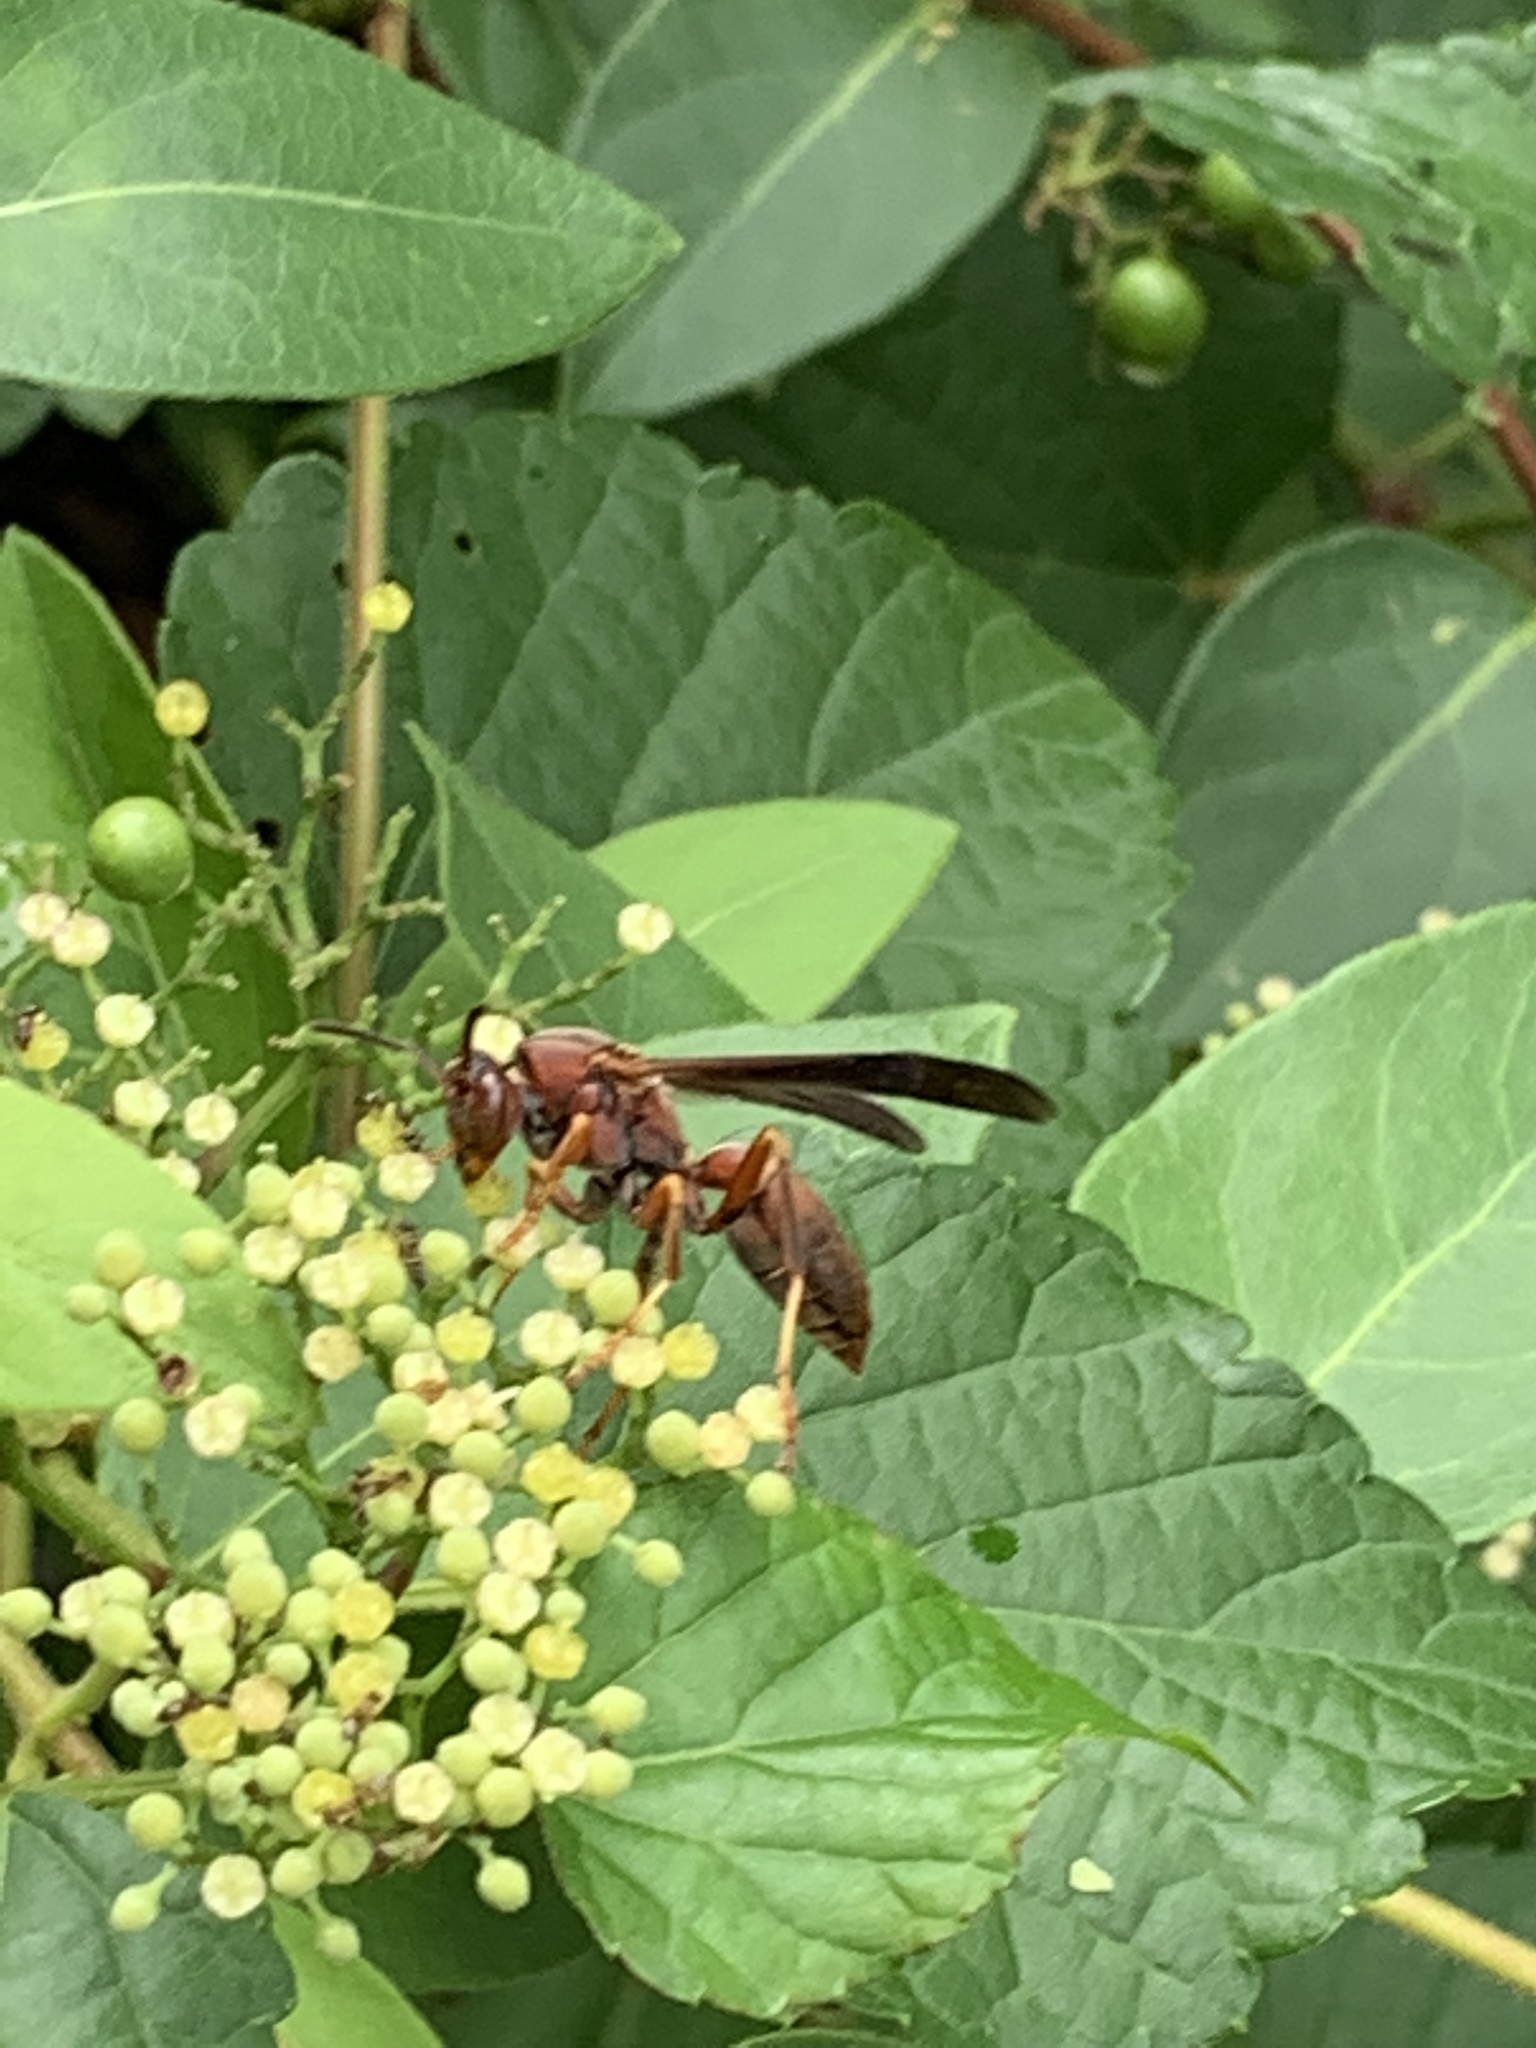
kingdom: Animalia
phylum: Arthropoda
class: Insecta
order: Hymenoptera
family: Vespidae
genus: Fuscopolistes
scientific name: Fuscopolistes
